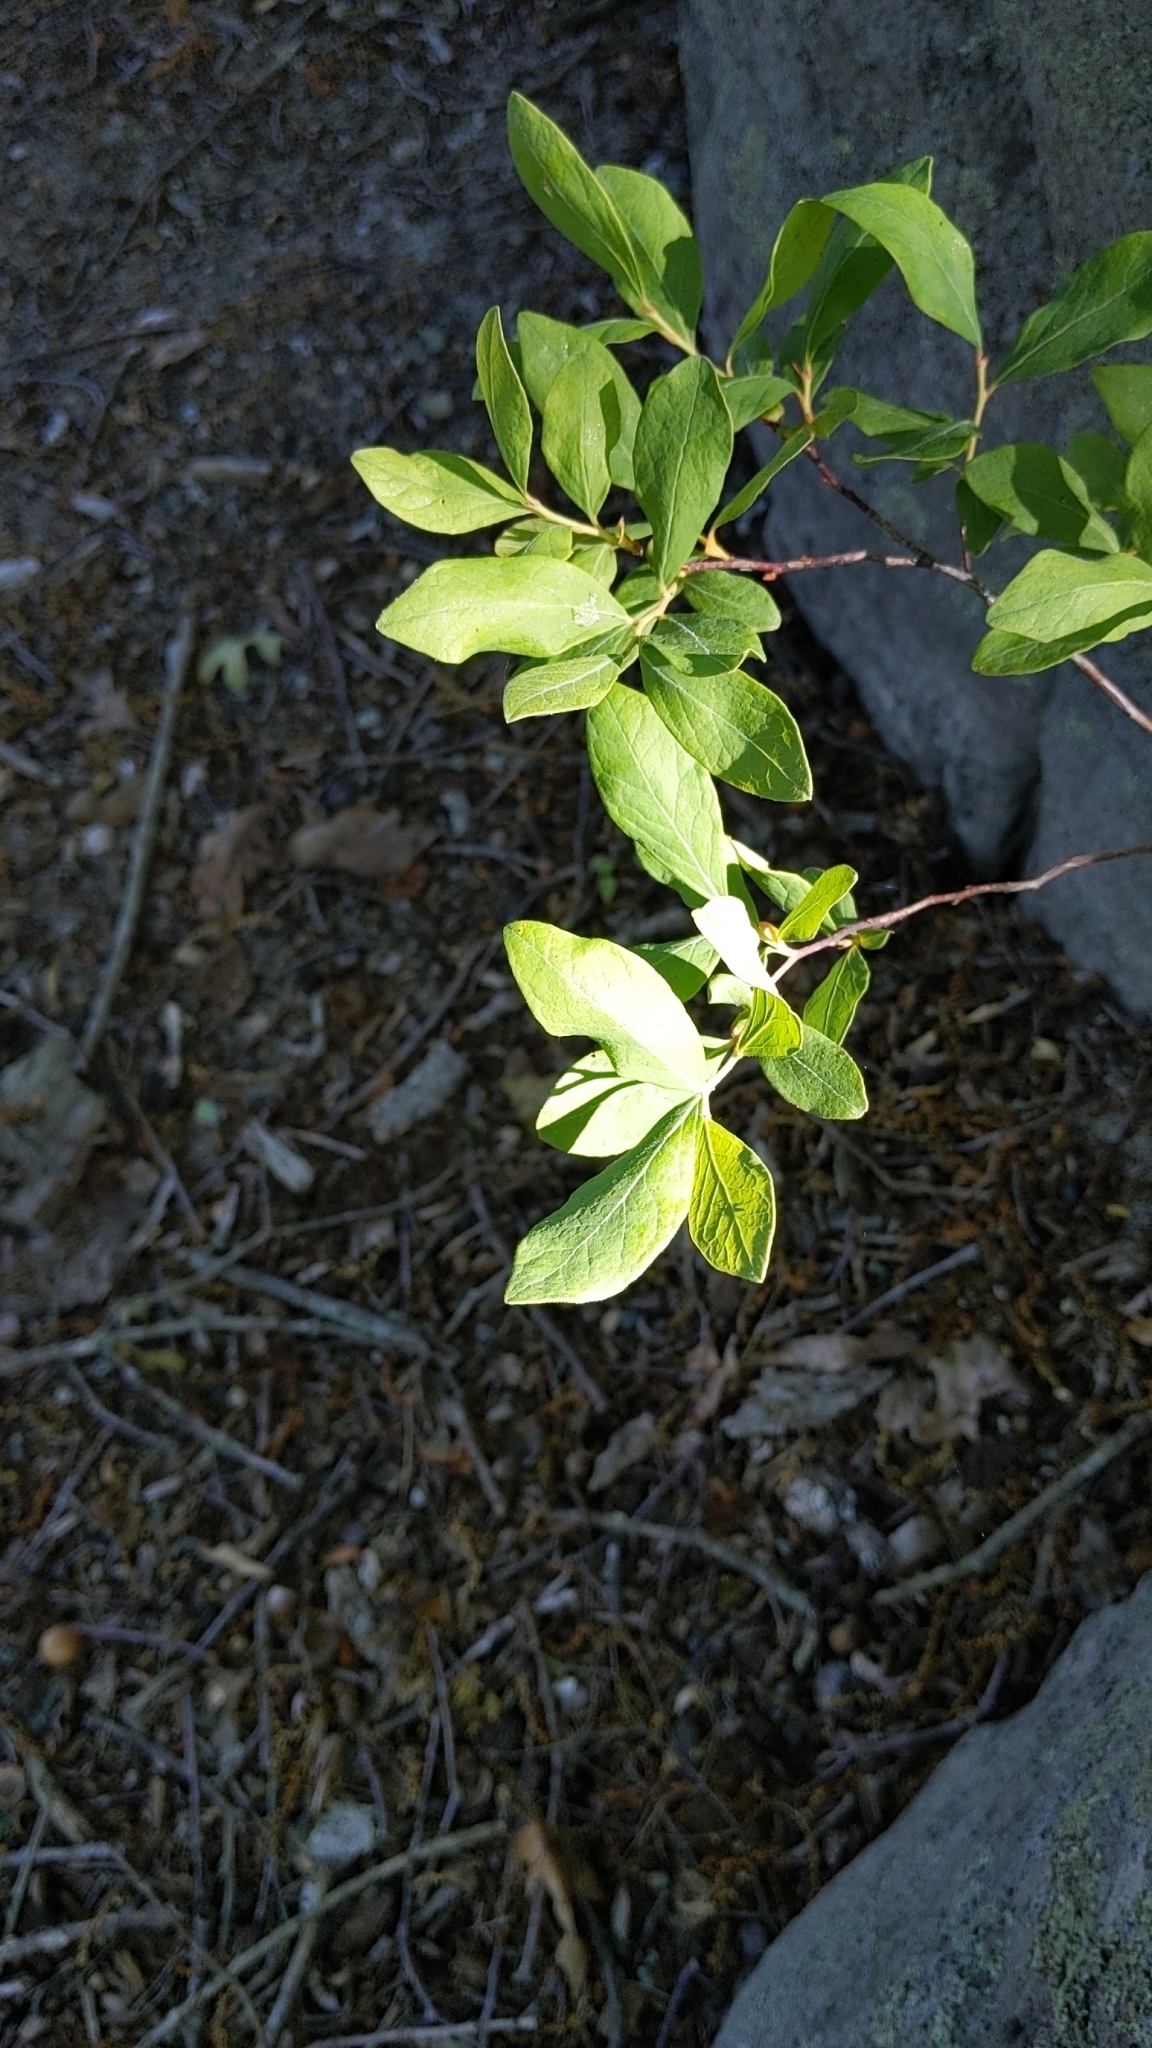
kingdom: Plantae
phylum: Tracheophyta
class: Magnoliopsida
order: Ericales
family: Ericaceae
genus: Gaylussacia
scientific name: Gaylussacia baccata
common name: Black huckleberry
